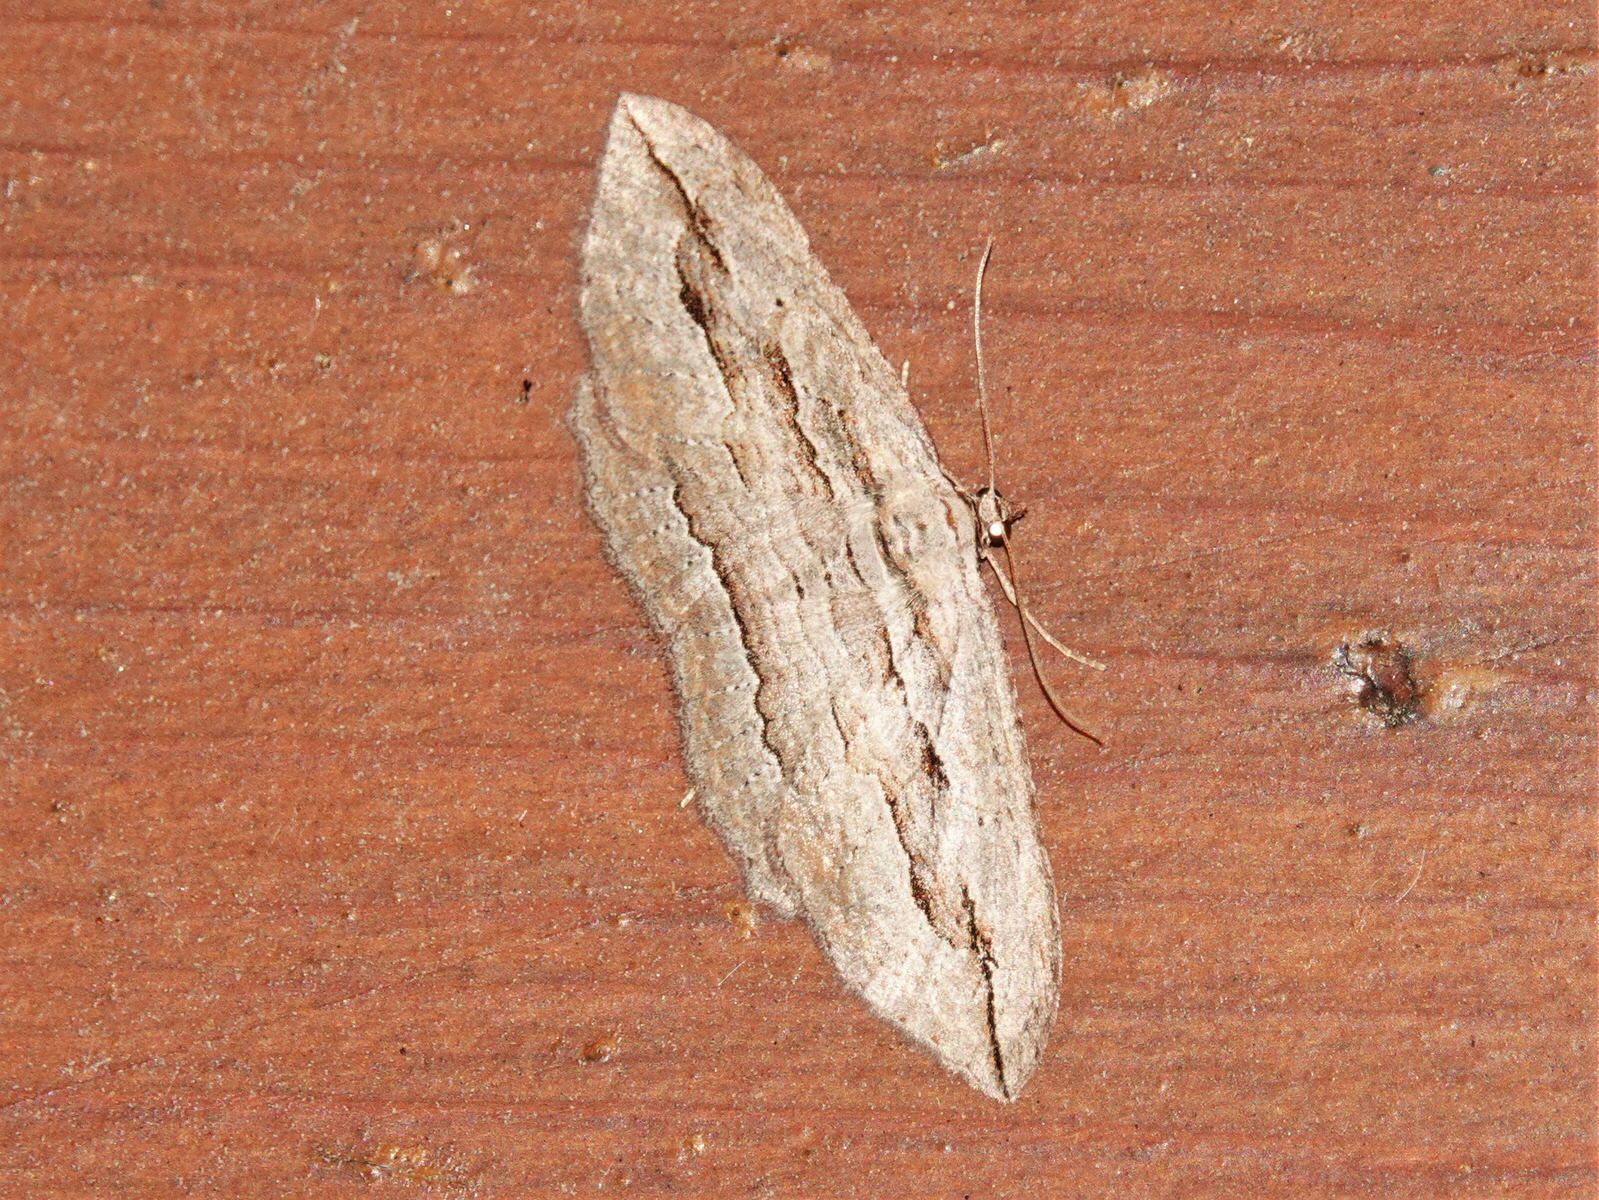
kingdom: Animalia
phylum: Arthropoda
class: Insecta
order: Lepidoptera
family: Geometridae
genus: Austrocidaria
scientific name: Austrocidaria gobiata
